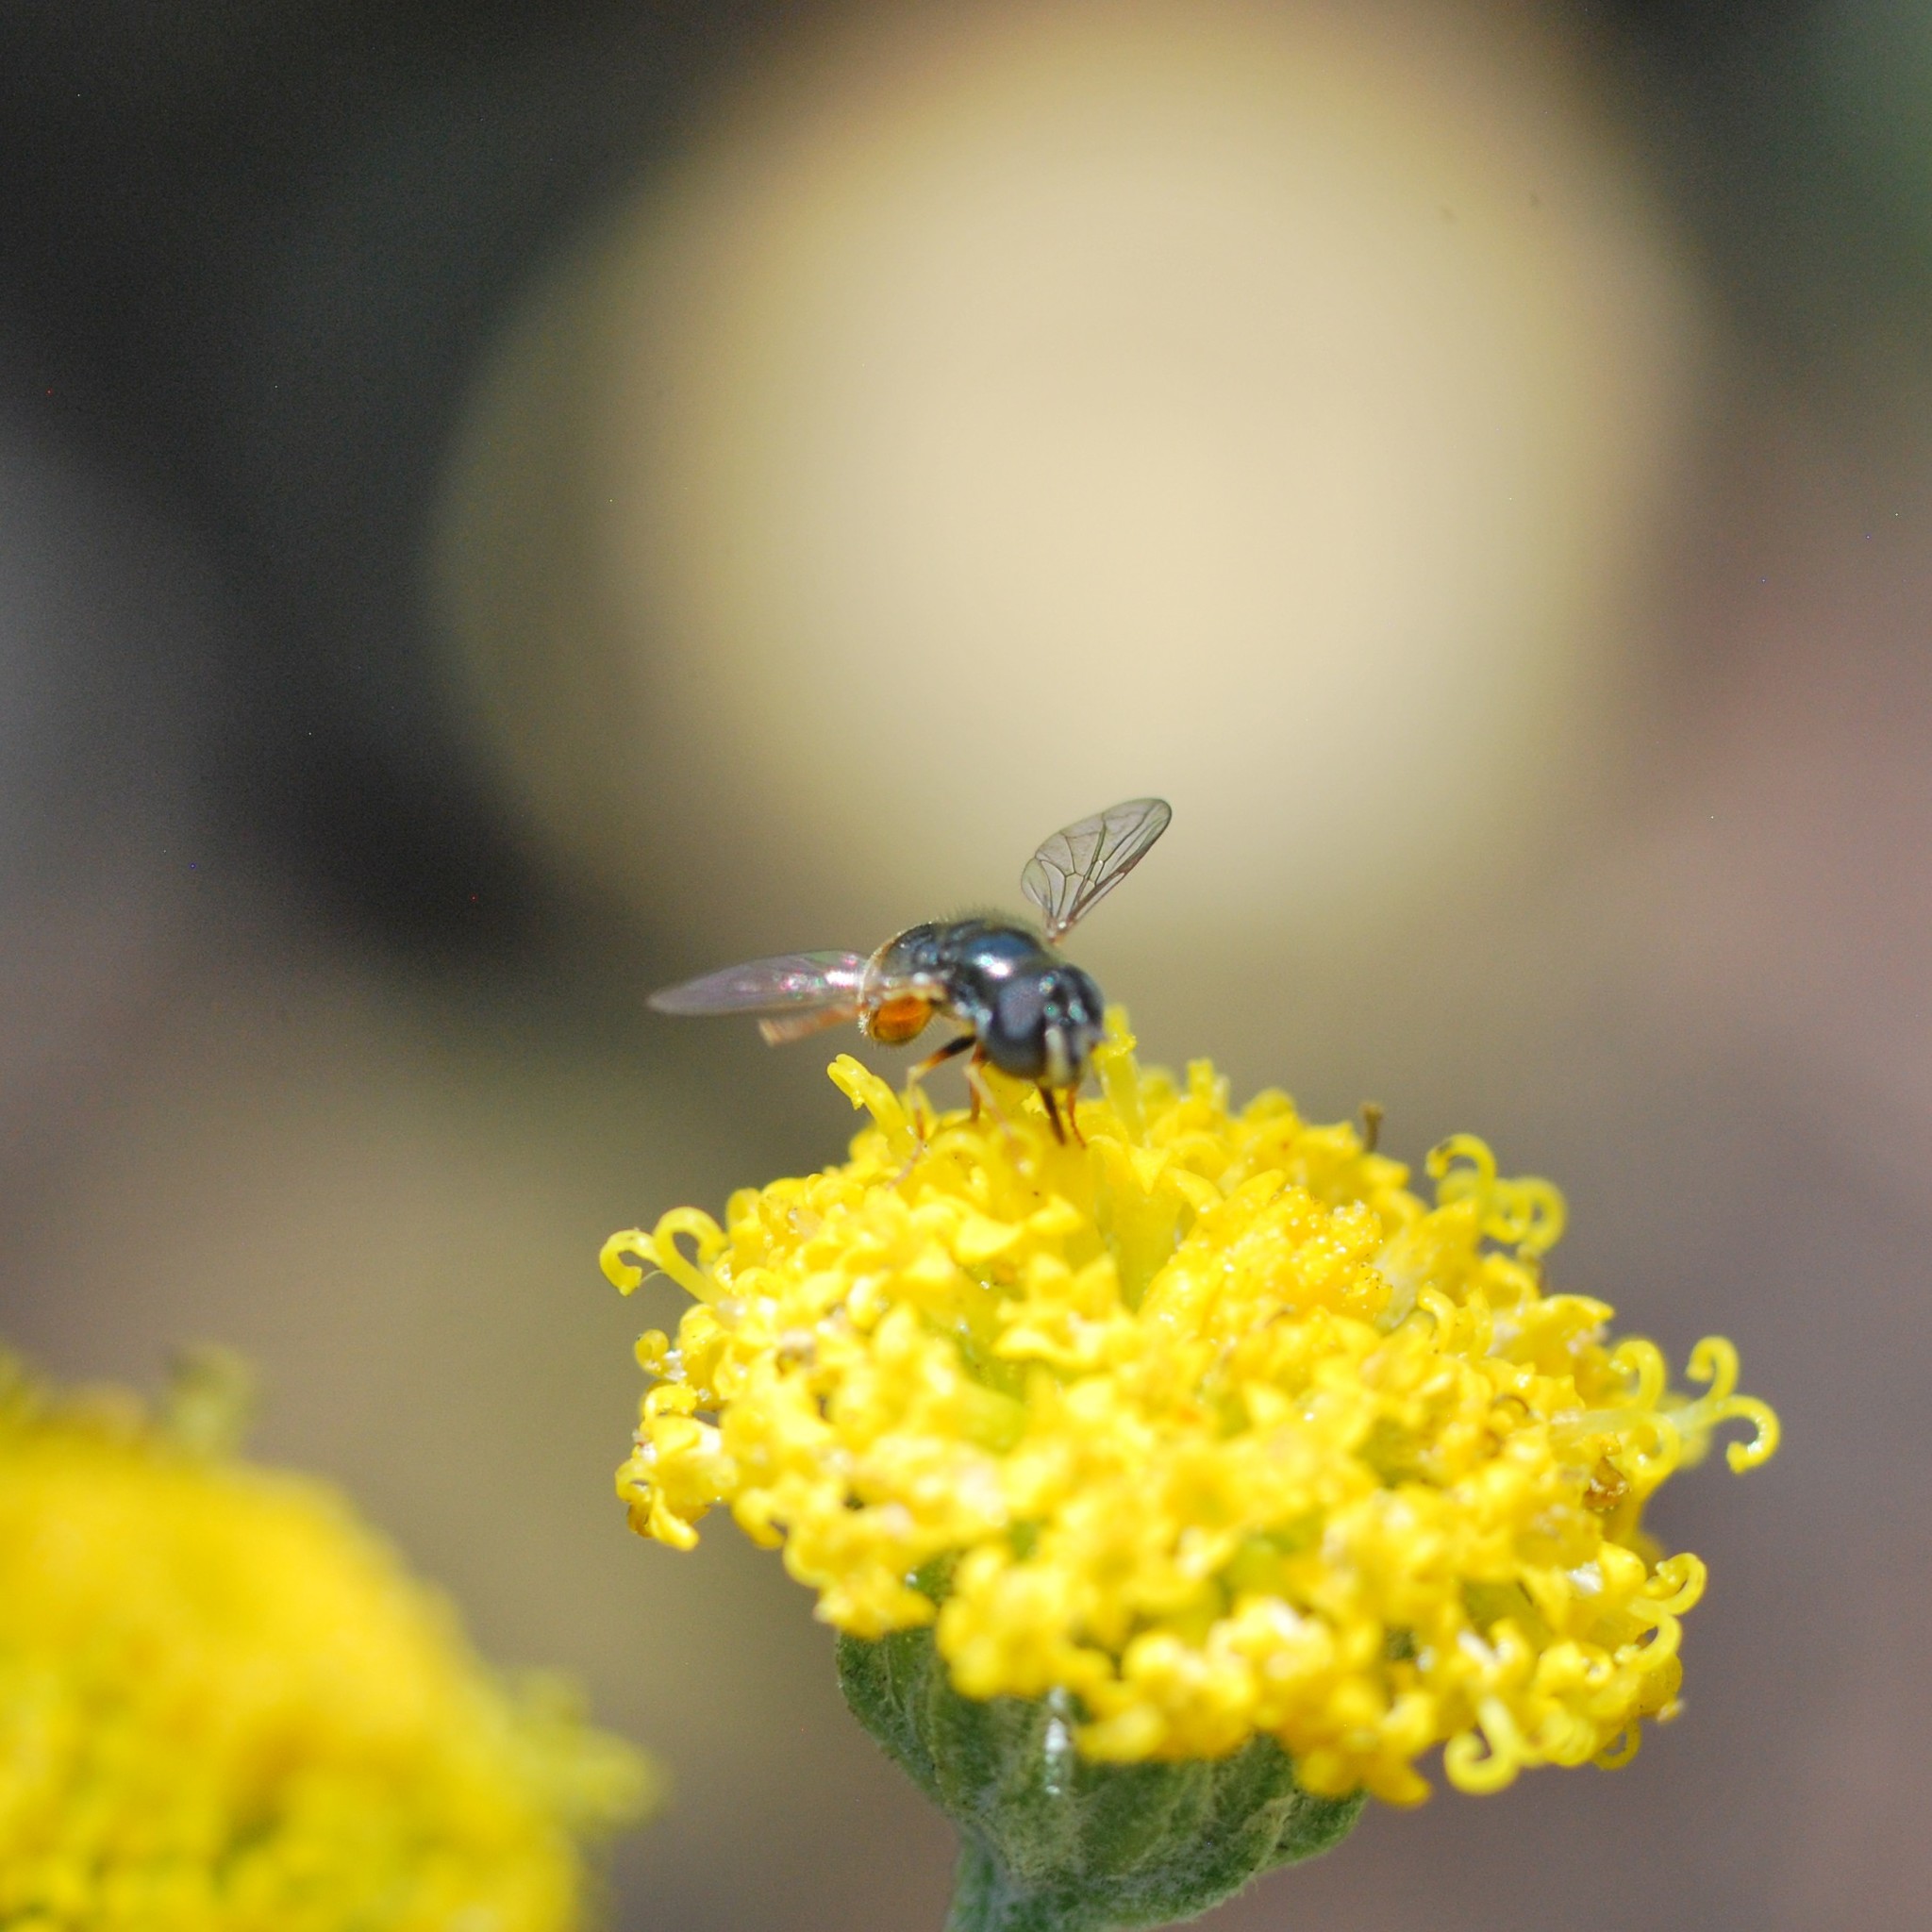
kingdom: Animalia
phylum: Arthropoda
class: Insecta
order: Diptera
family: Syrphidae
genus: Paragus
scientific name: Paragus haemorrhous
